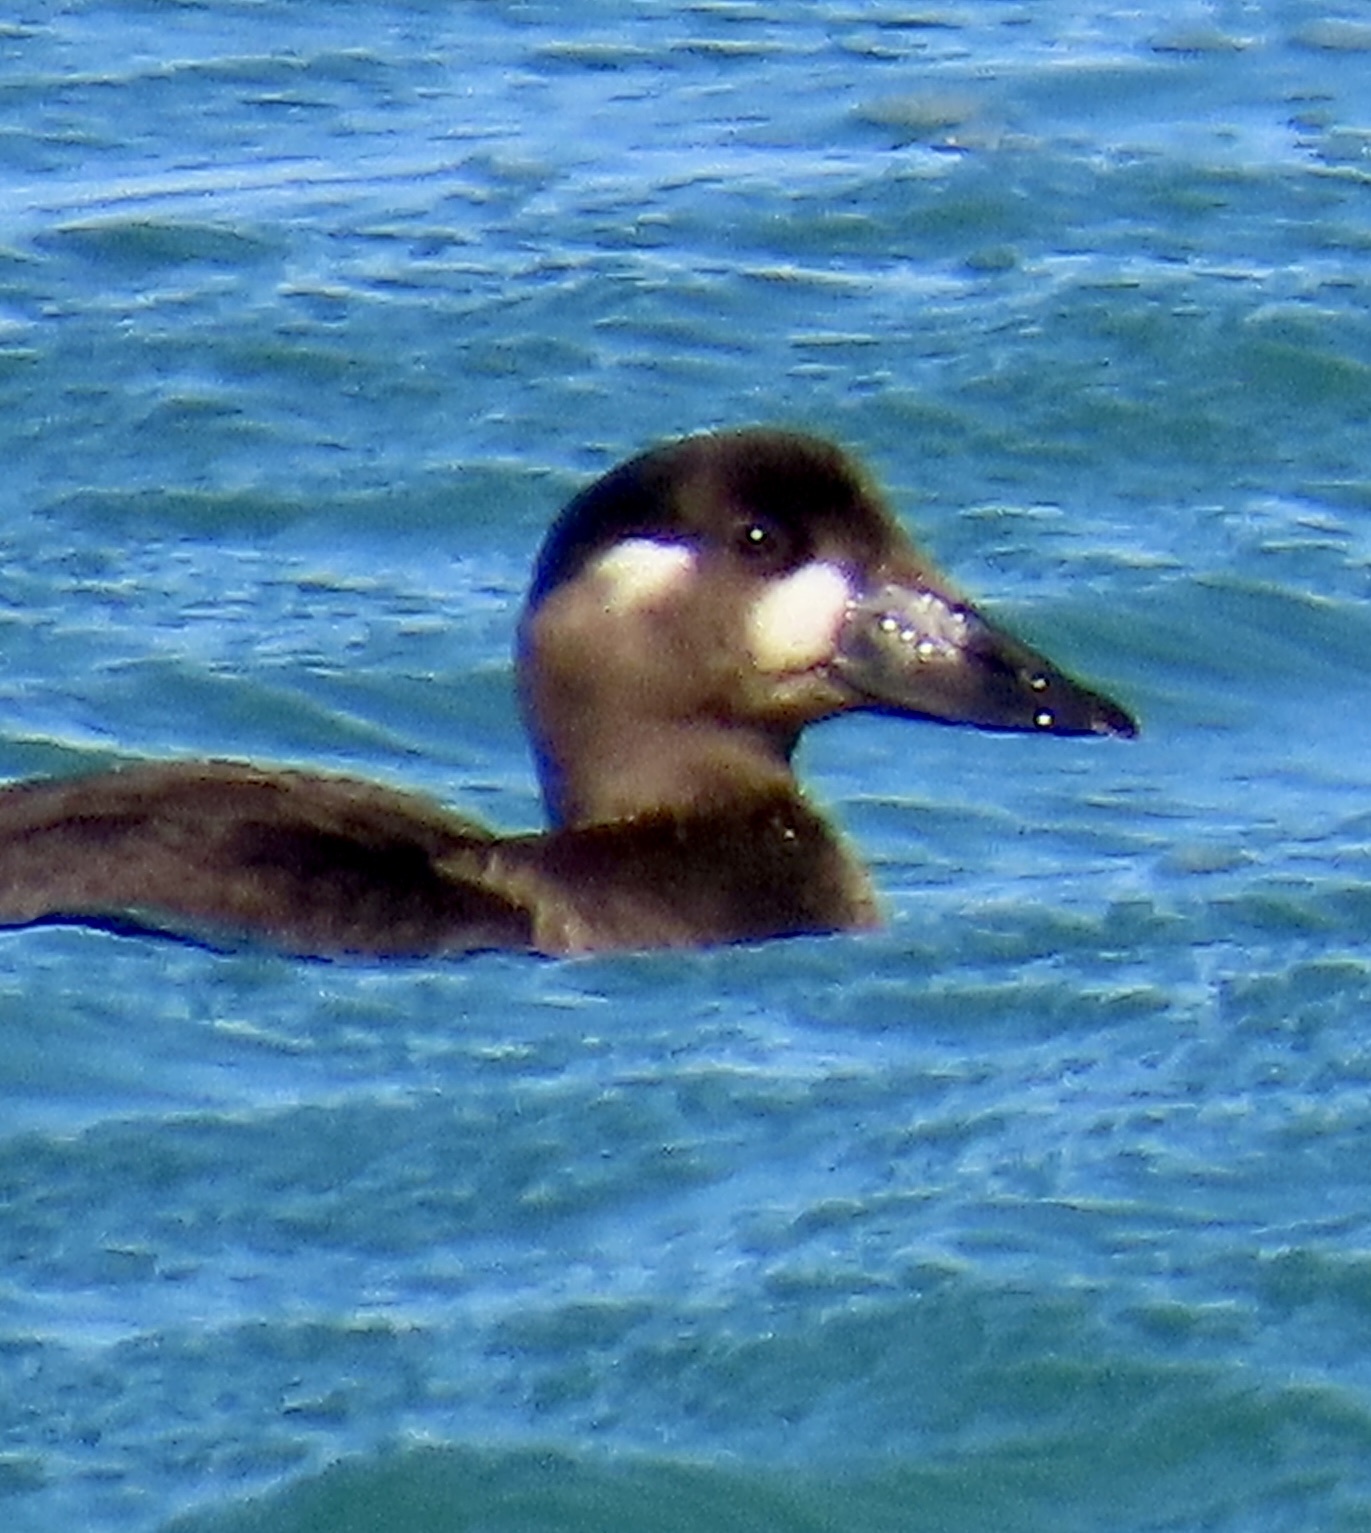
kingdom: Animalia
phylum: Chordata
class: Aves
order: Anseriformes
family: Anatidae
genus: Melanitta
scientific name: Melanitta perspicillata
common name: Surf scoter
